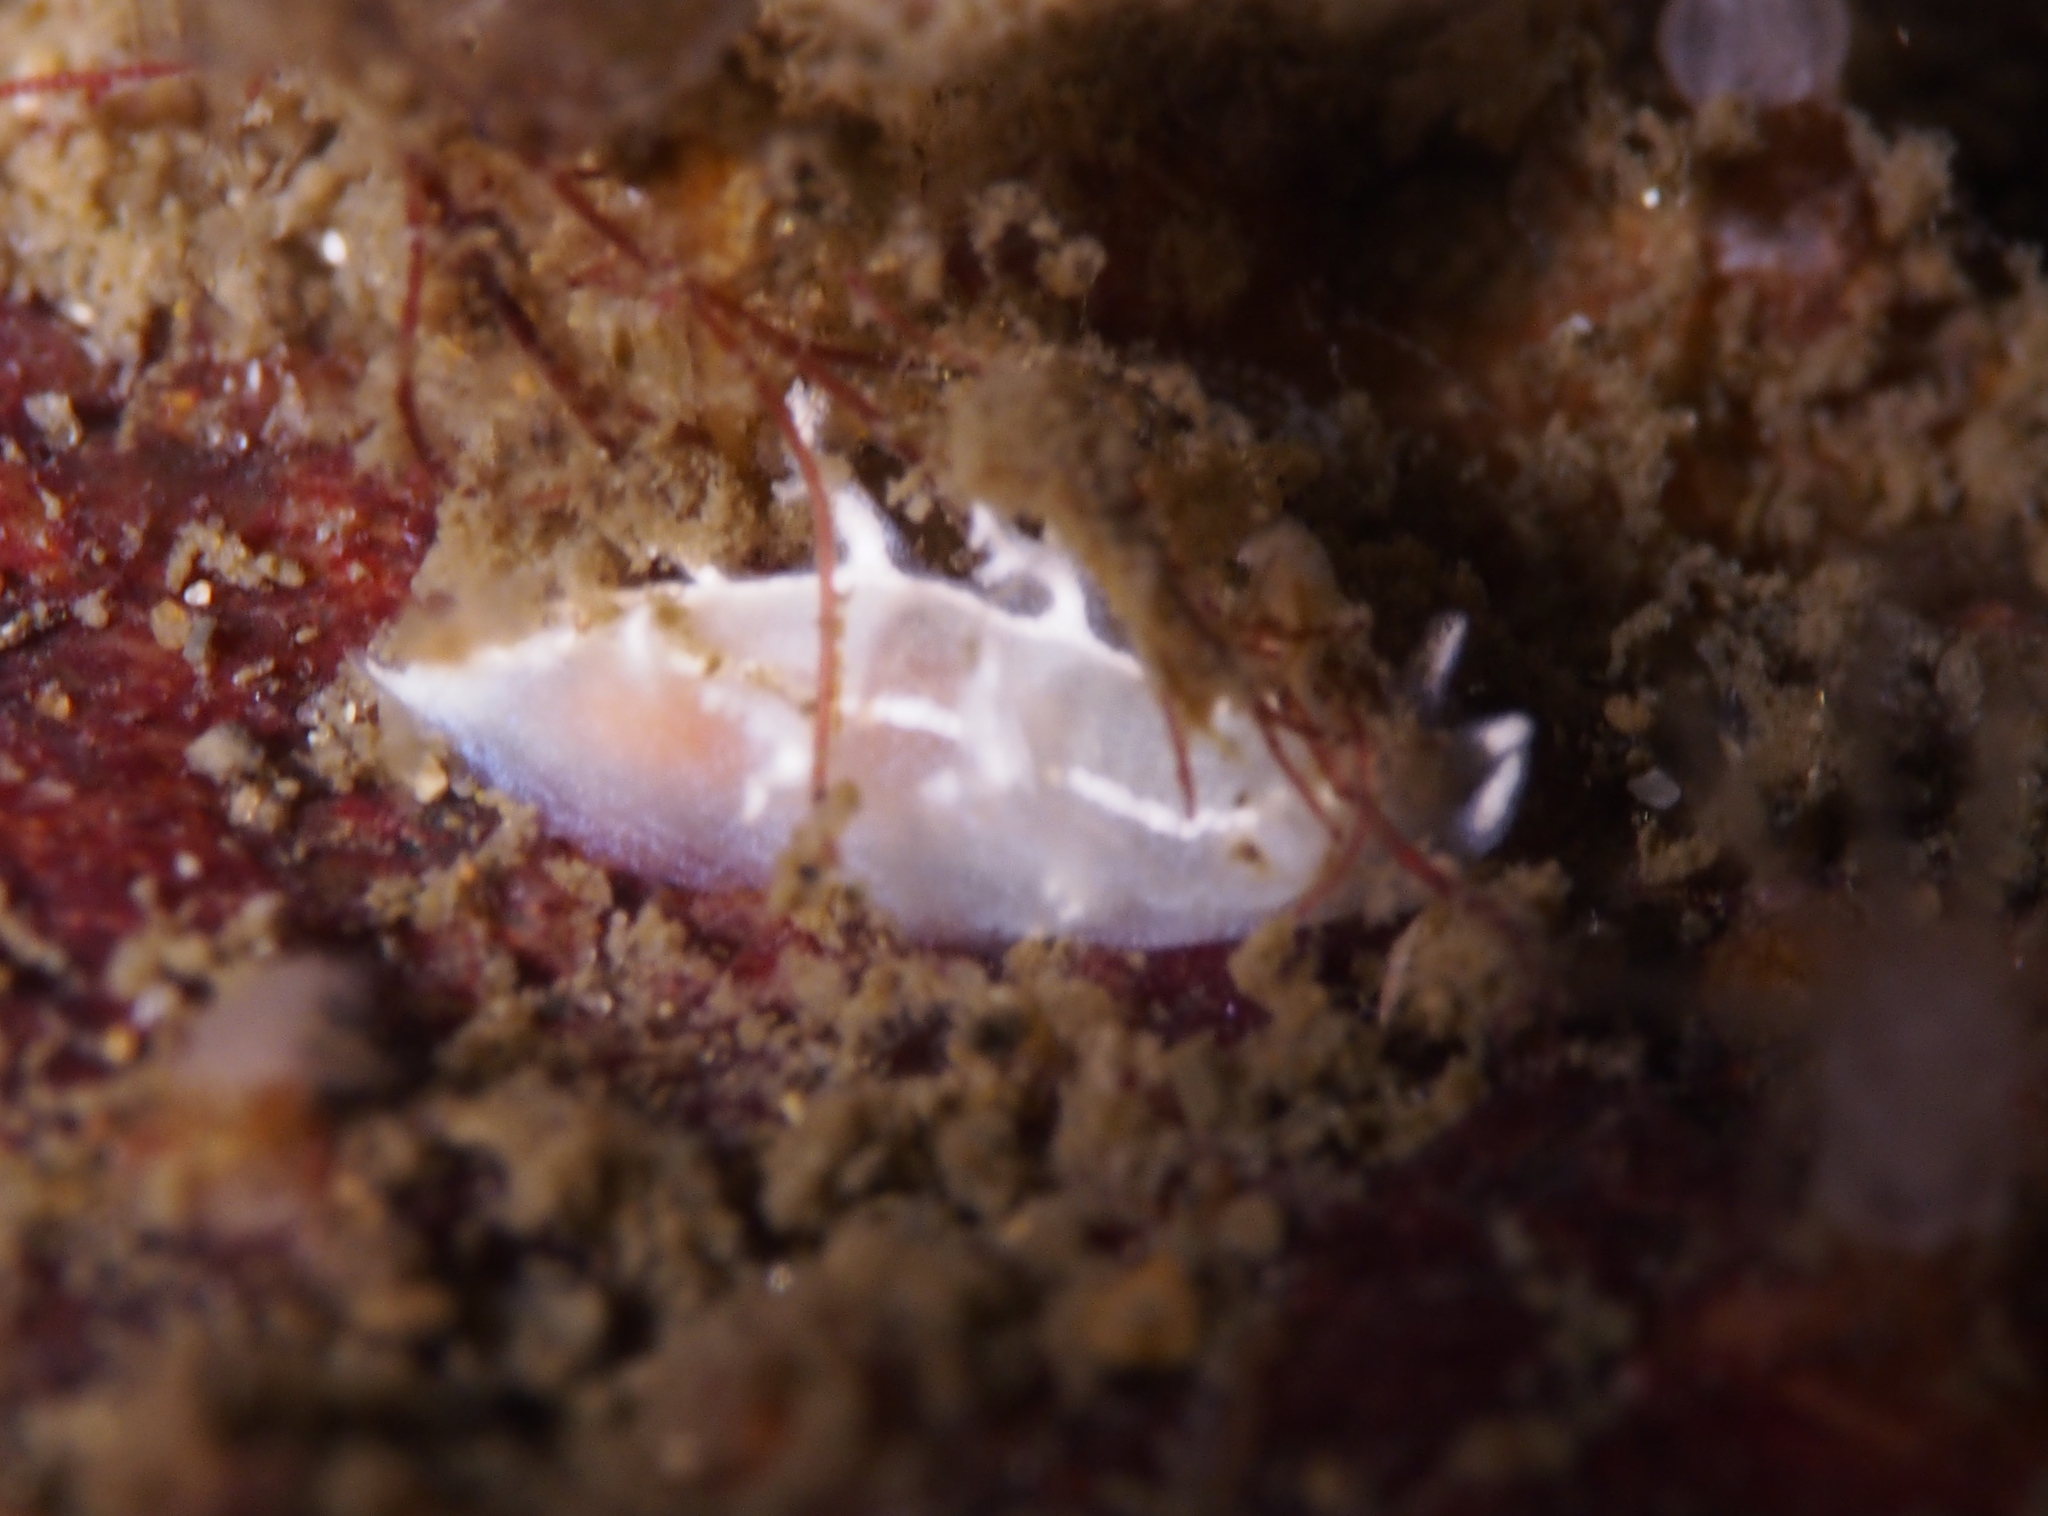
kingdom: Animalia
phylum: Mollusca
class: Gastropoda
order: Nudibranchia
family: Tritoniidae
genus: Duvaucelia
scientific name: Duvaucelia lineata
